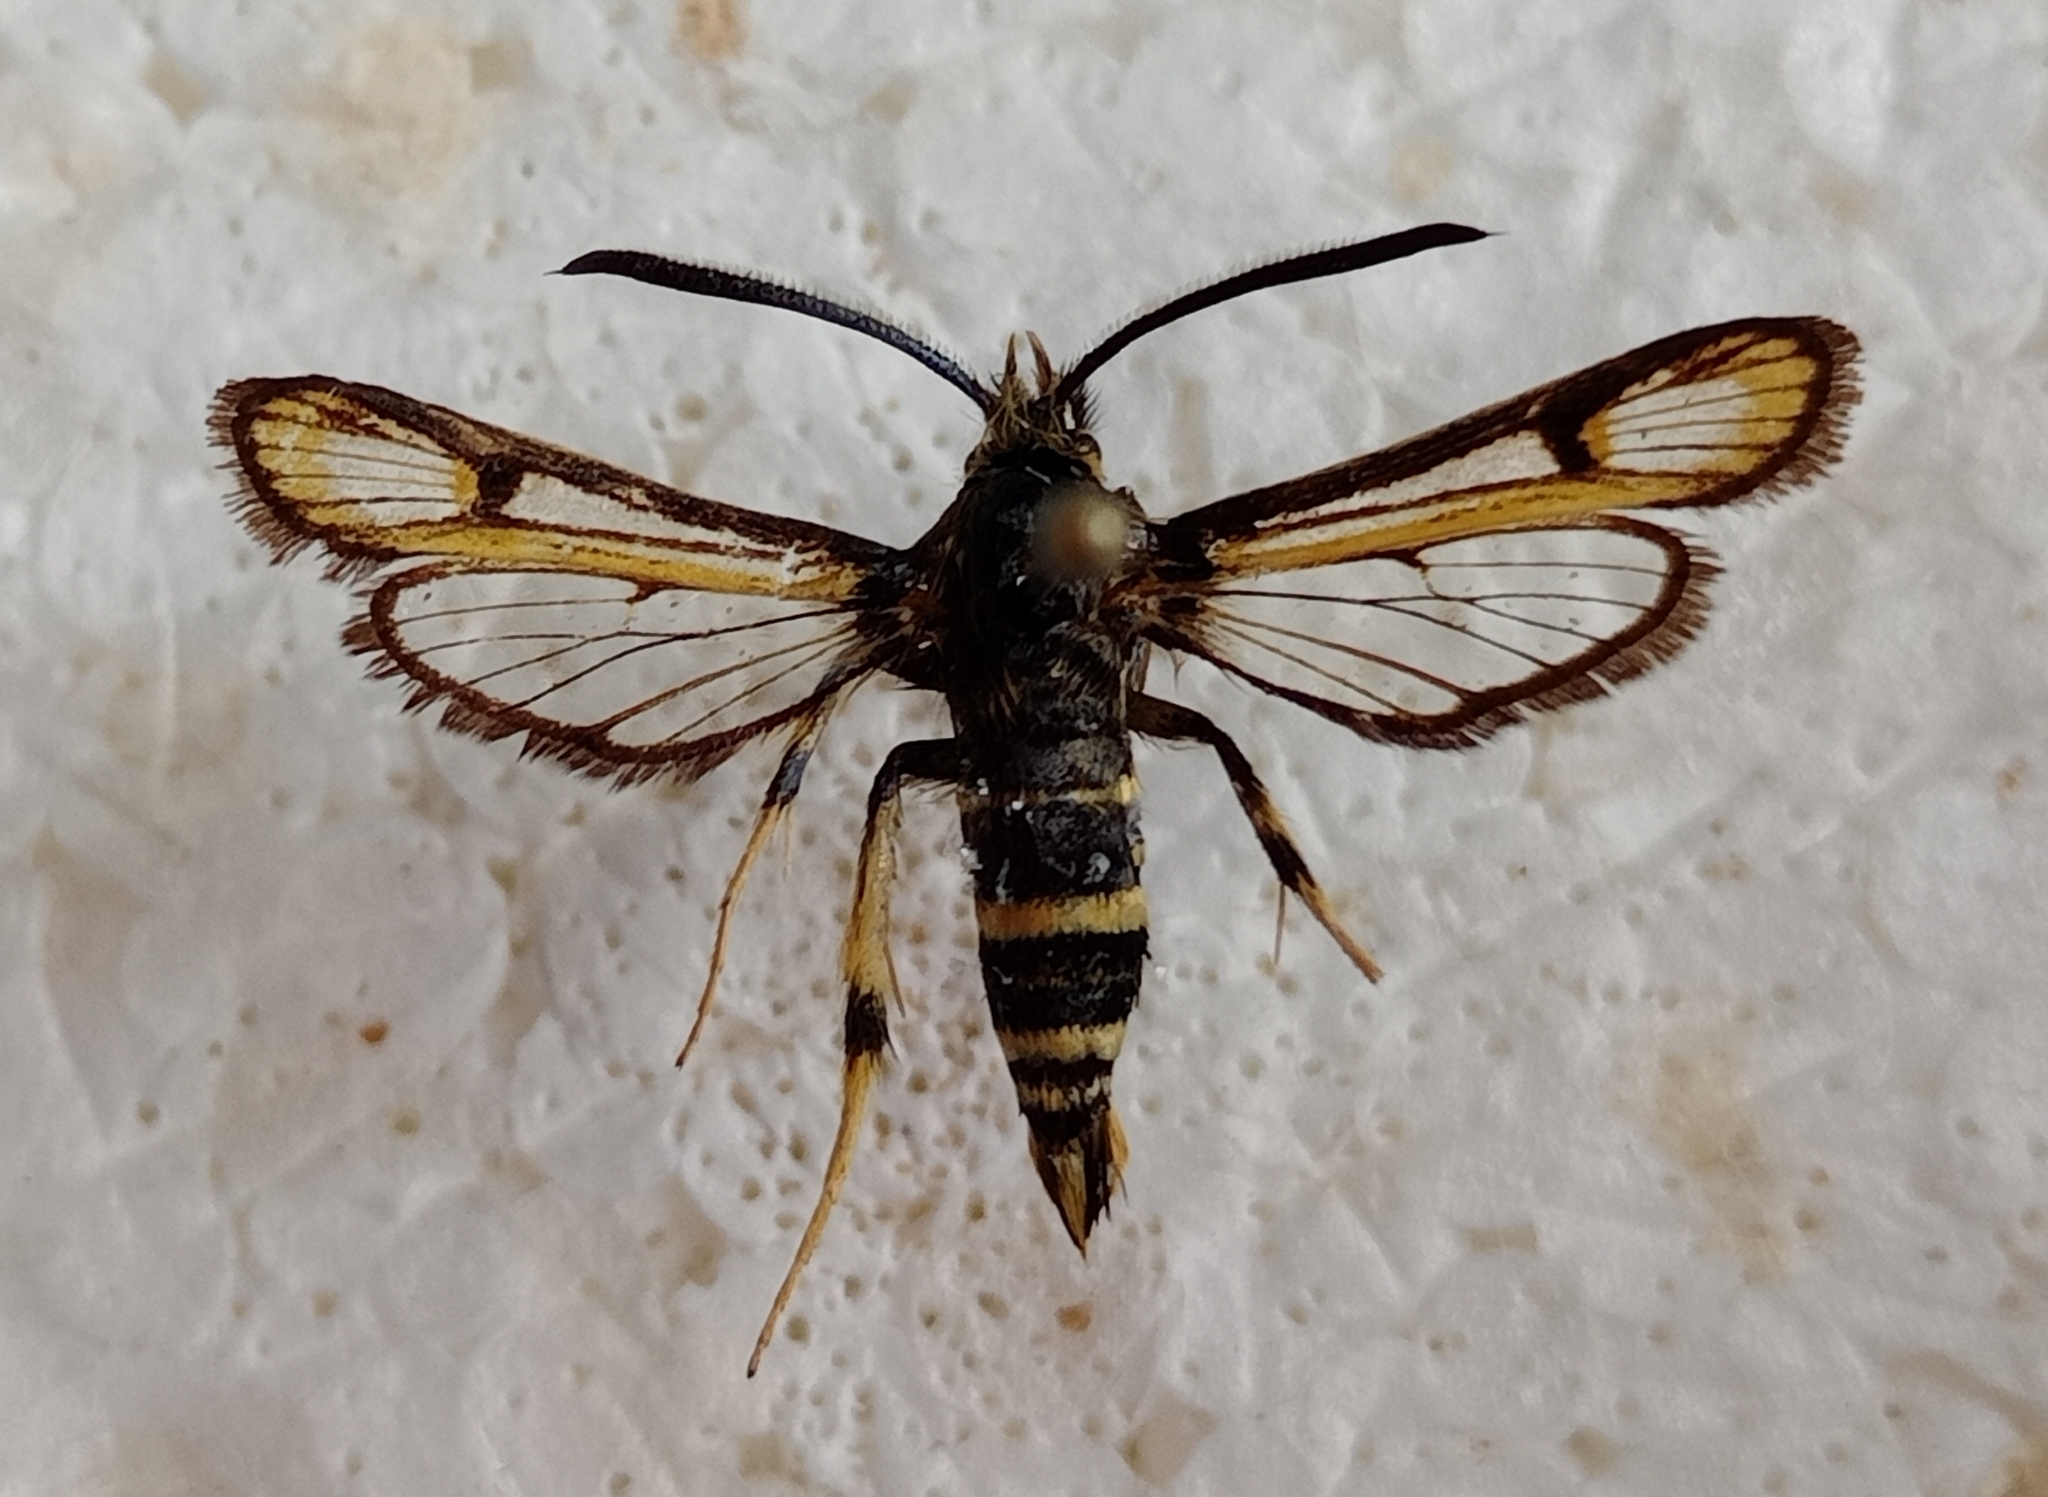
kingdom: Animalia
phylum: Arthropoda
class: Insecta
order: Lepidoptera
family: Sesiidae
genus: Bembecia
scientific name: Bembecia molleti
